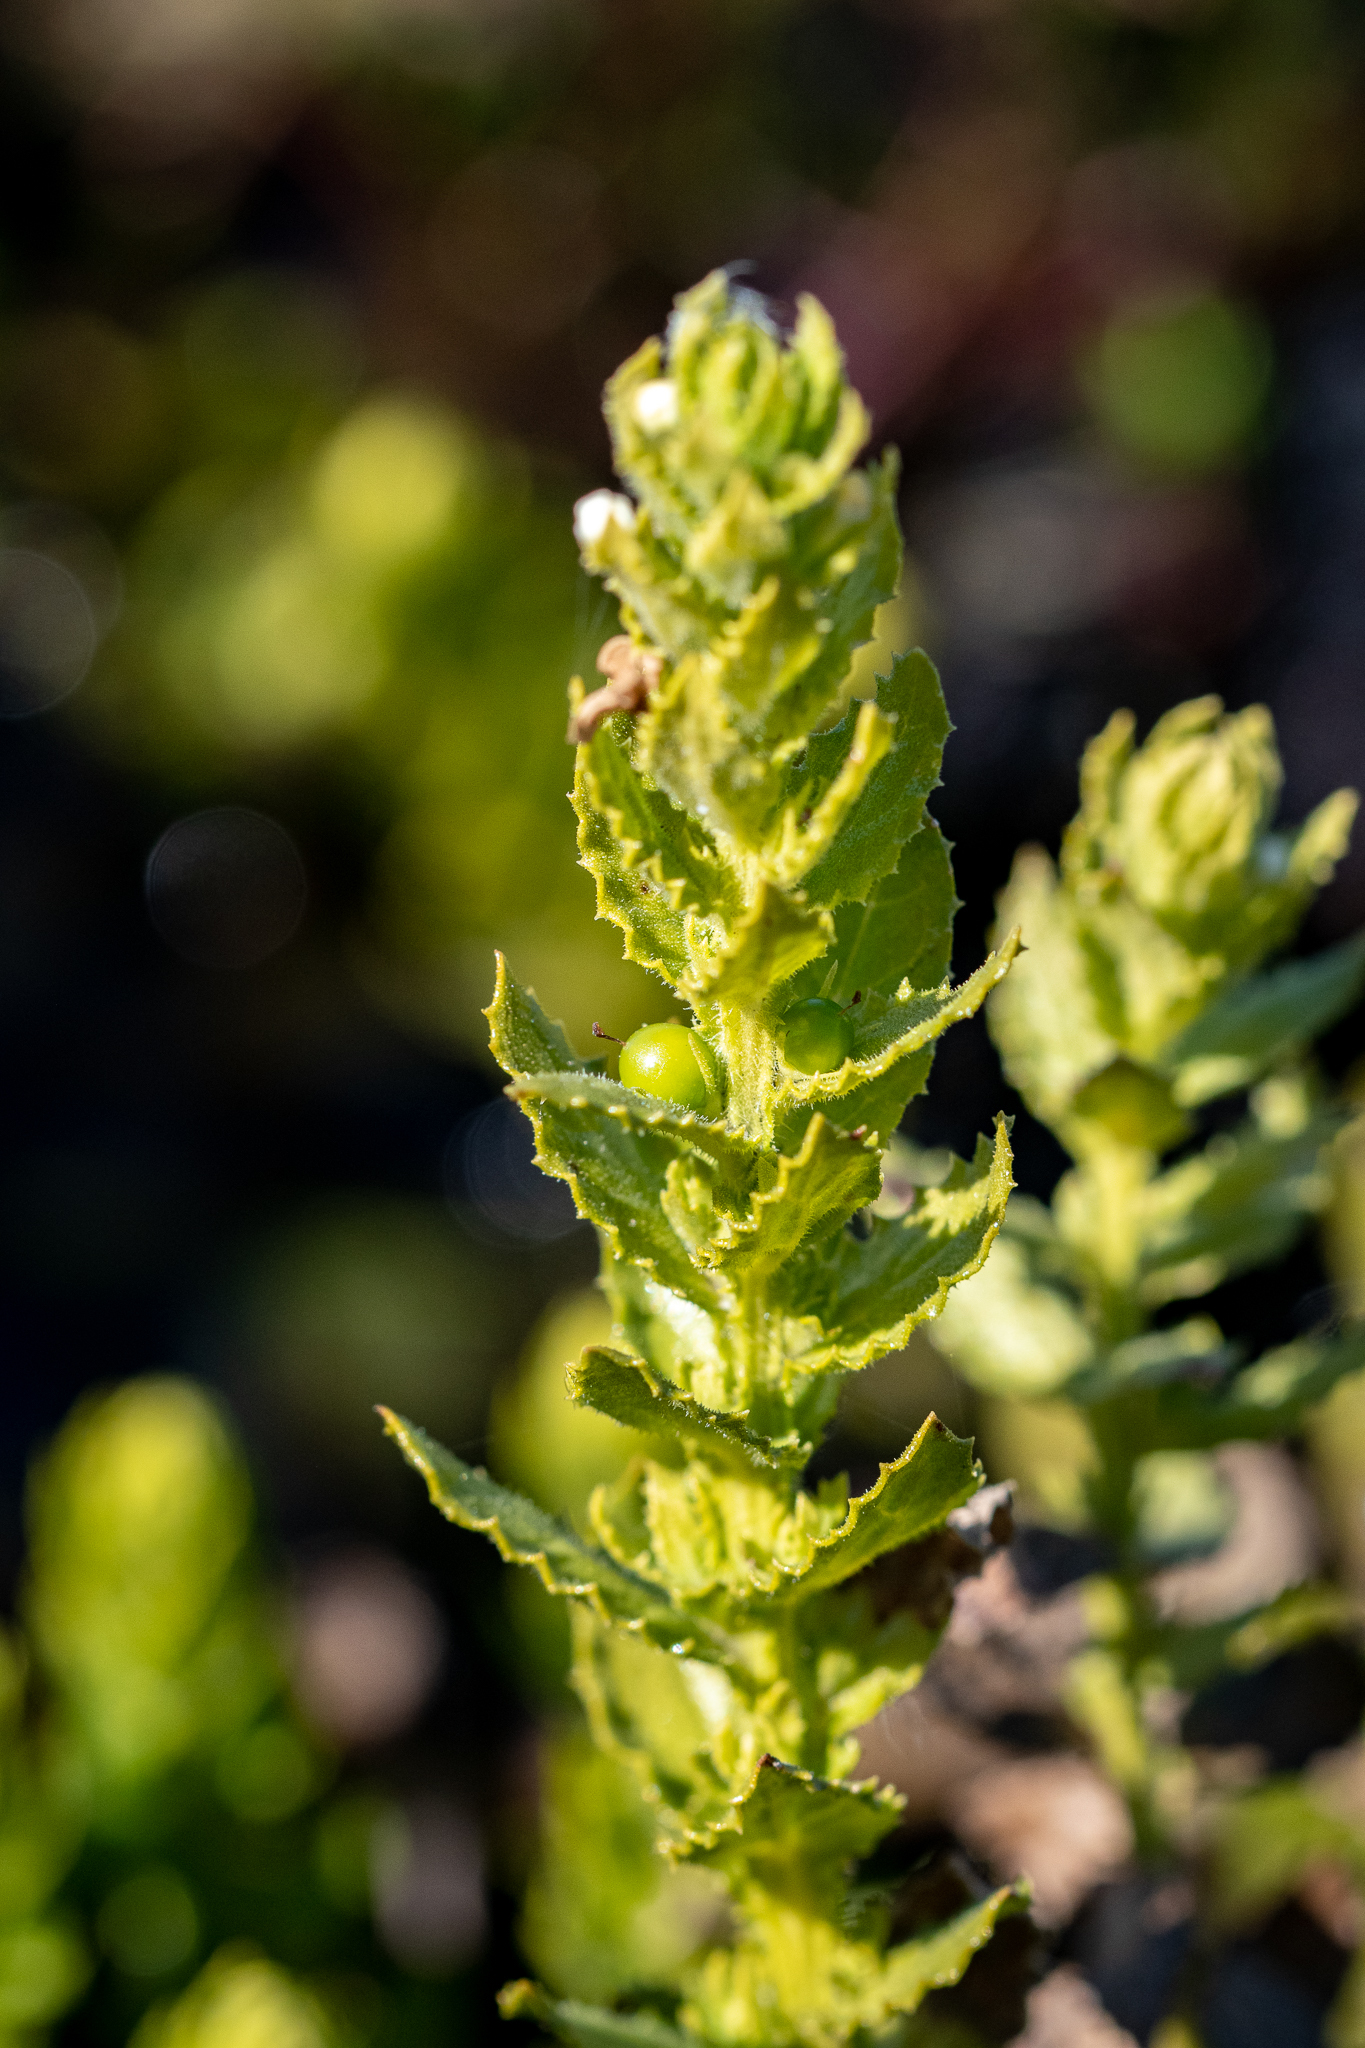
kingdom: Plantae
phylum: Tracheophyta
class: Magnoliopsida
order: Lamiales
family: Scrophulariaceae
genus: Oftia
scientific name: Oftia africana
